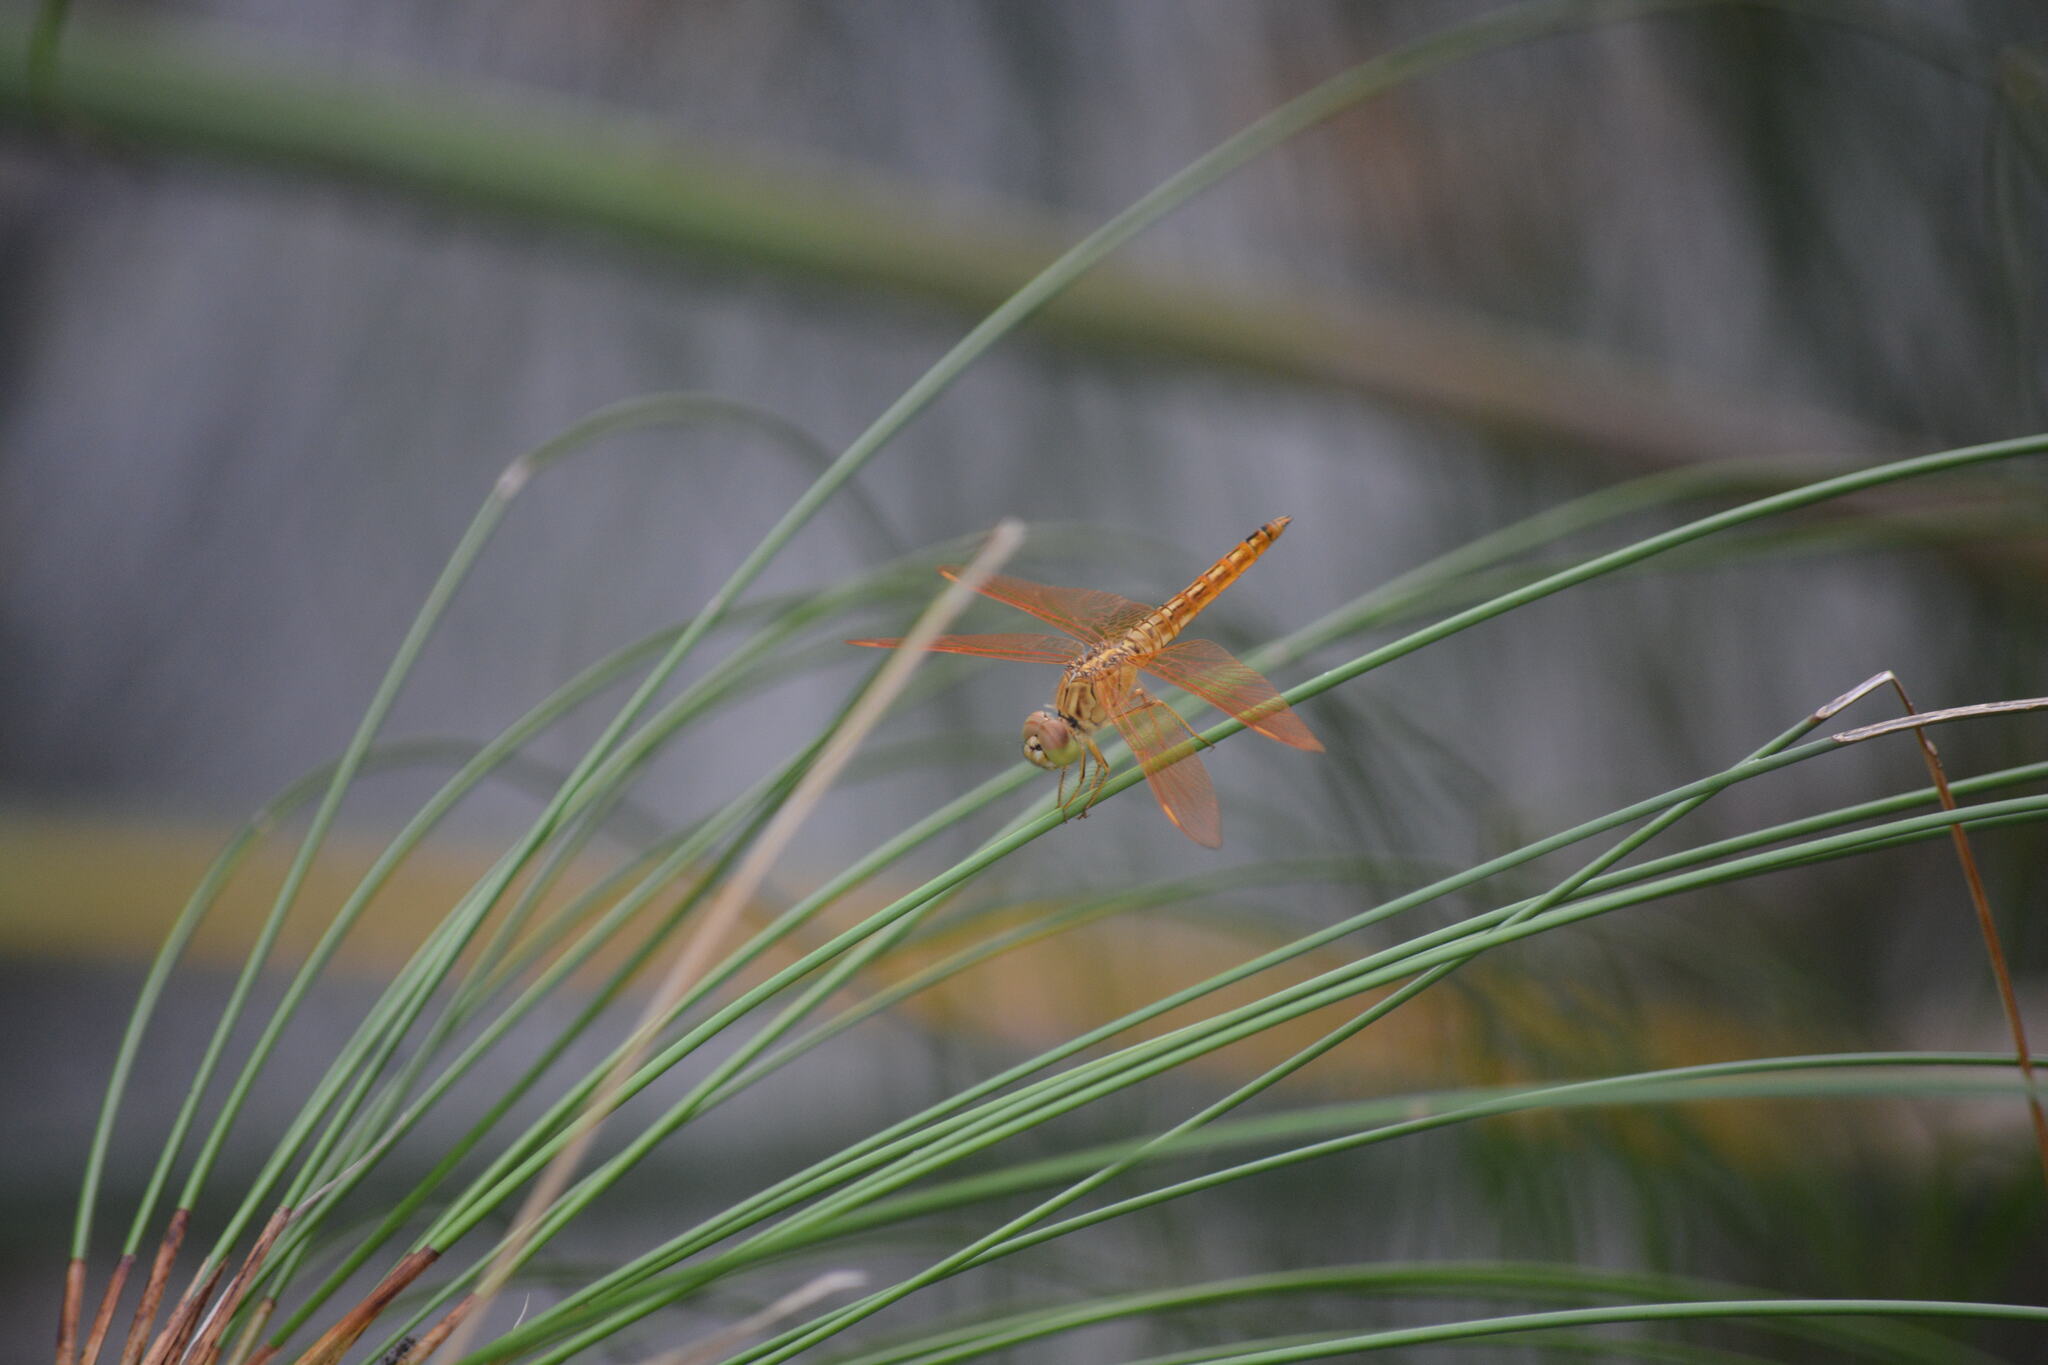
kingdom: Animalia
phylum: Arthropoda
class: Insecta
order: Odonata
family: Libellulidae
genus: Brachythemis
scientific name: Brachythemis contaminata
